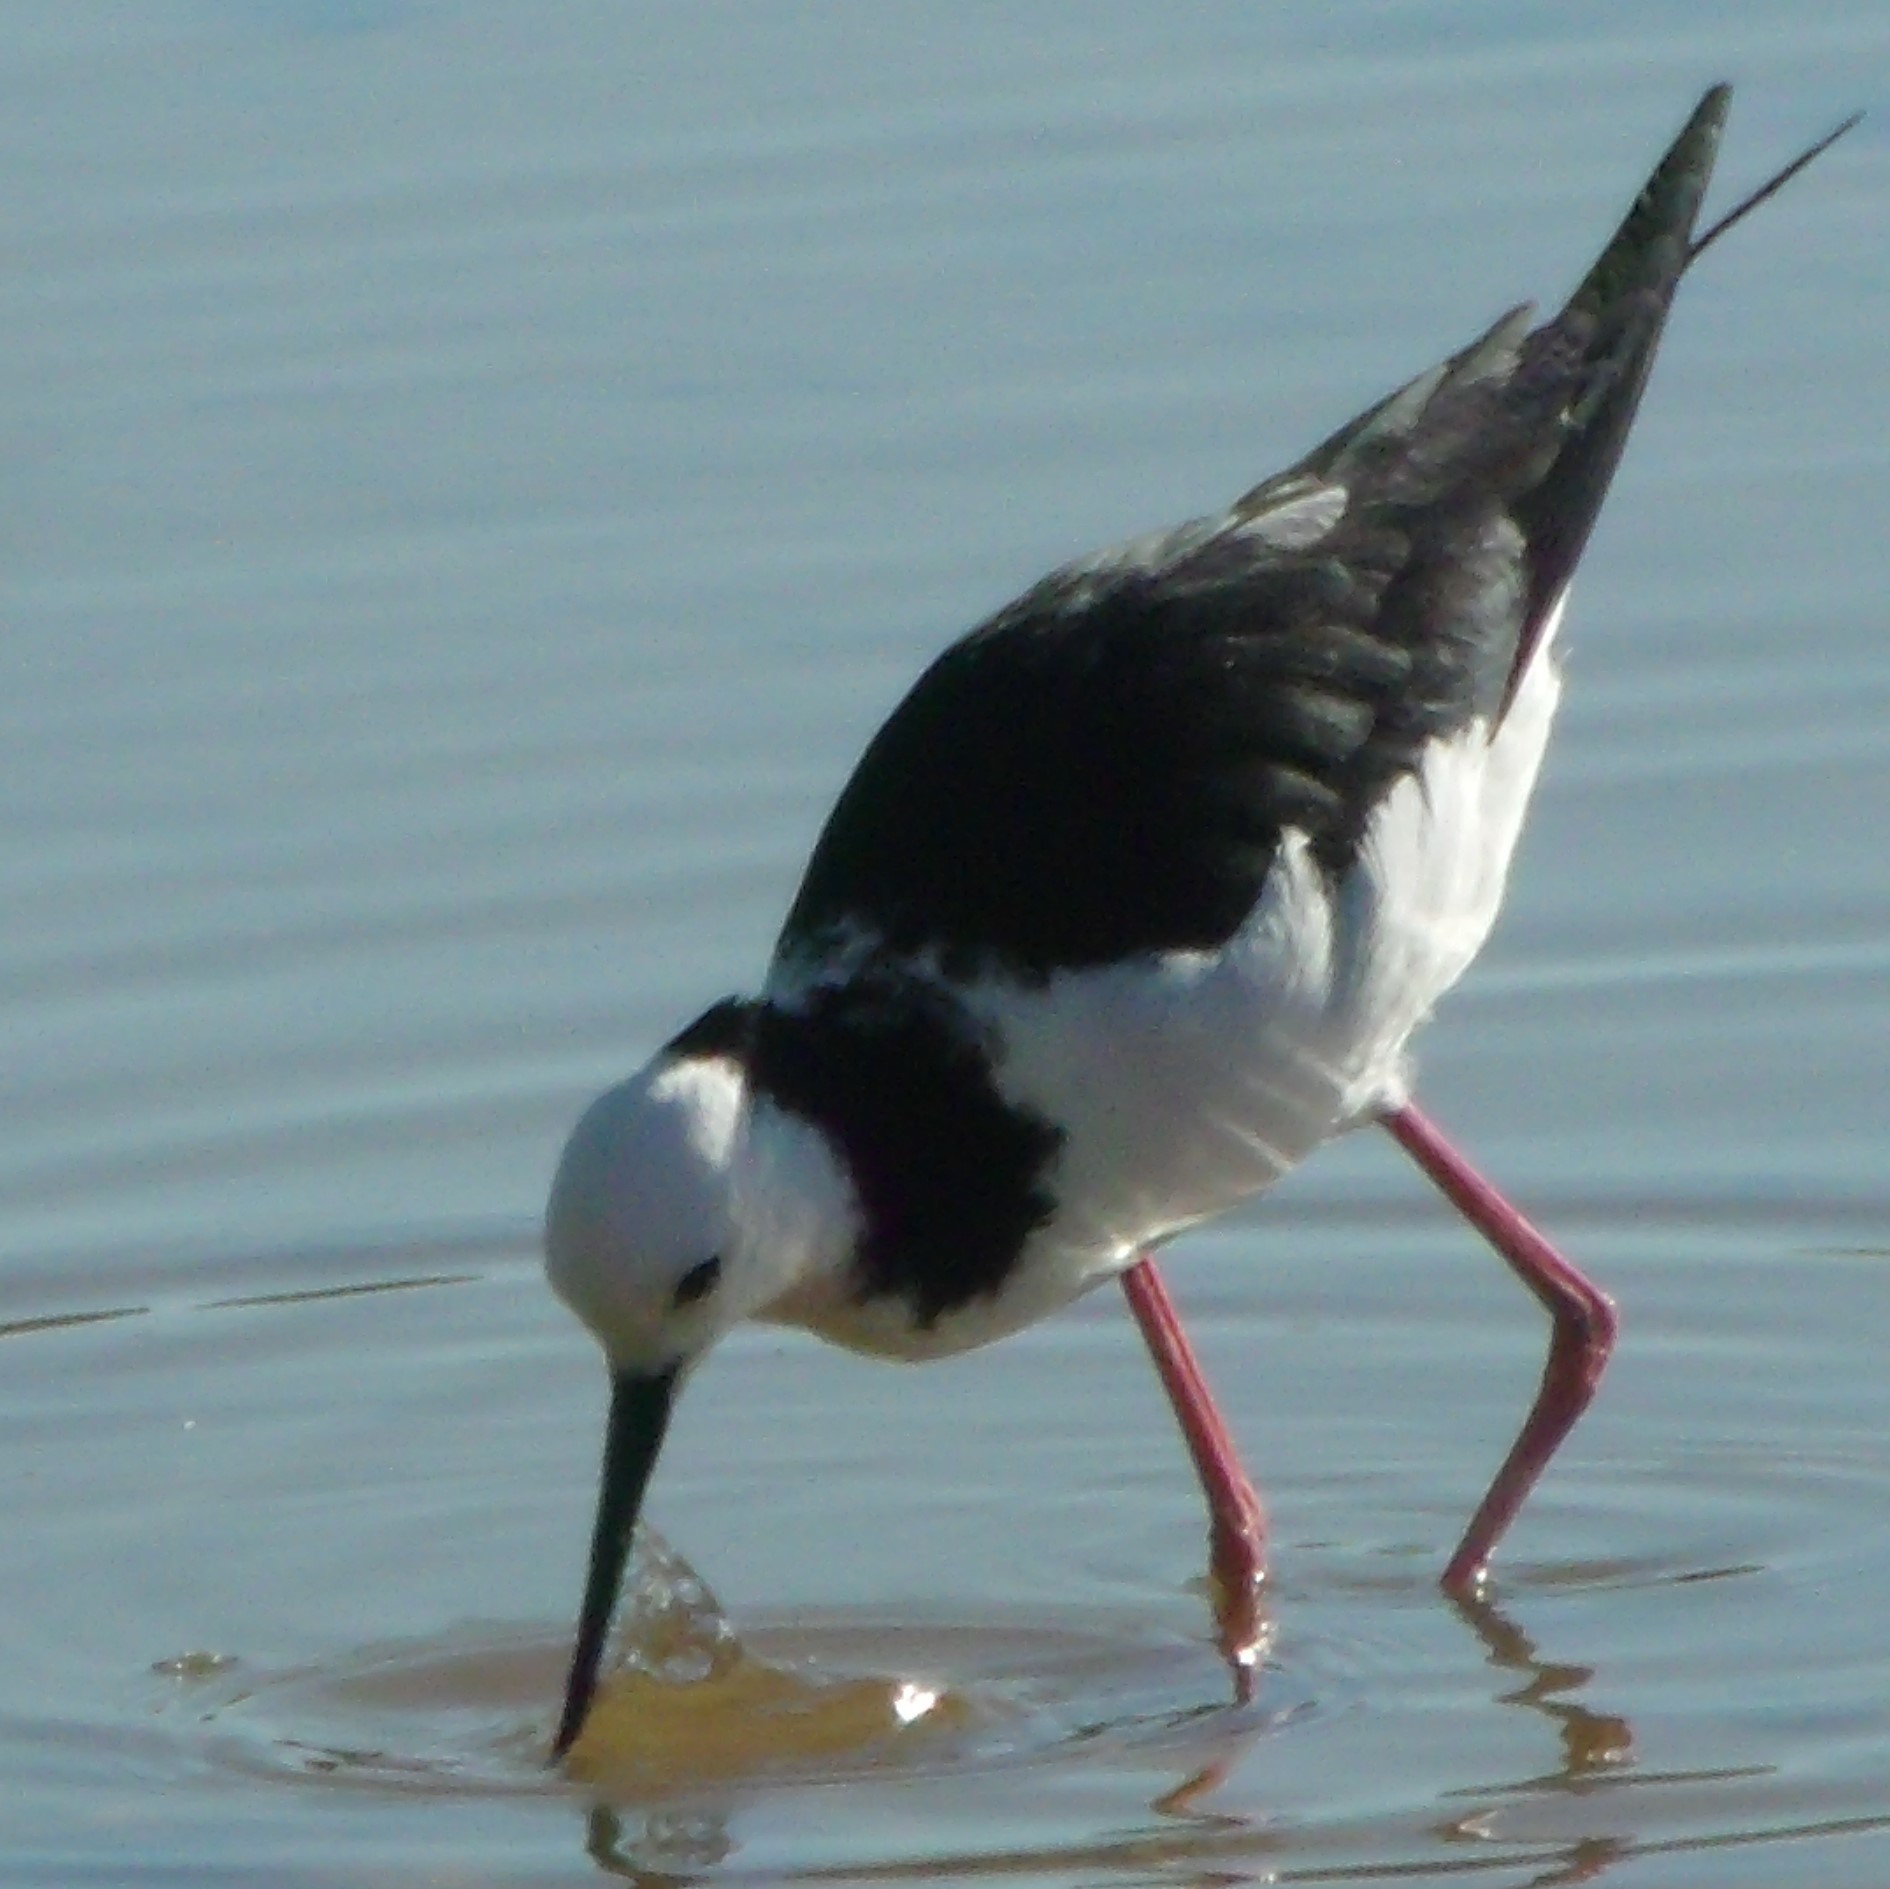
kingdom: Animalia
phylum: Chordata
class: Aves
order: Charadriiformes
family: Recurvirostridae
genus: Himantopus
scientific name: Himantopus leucocephalus
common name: White-headed stilt
